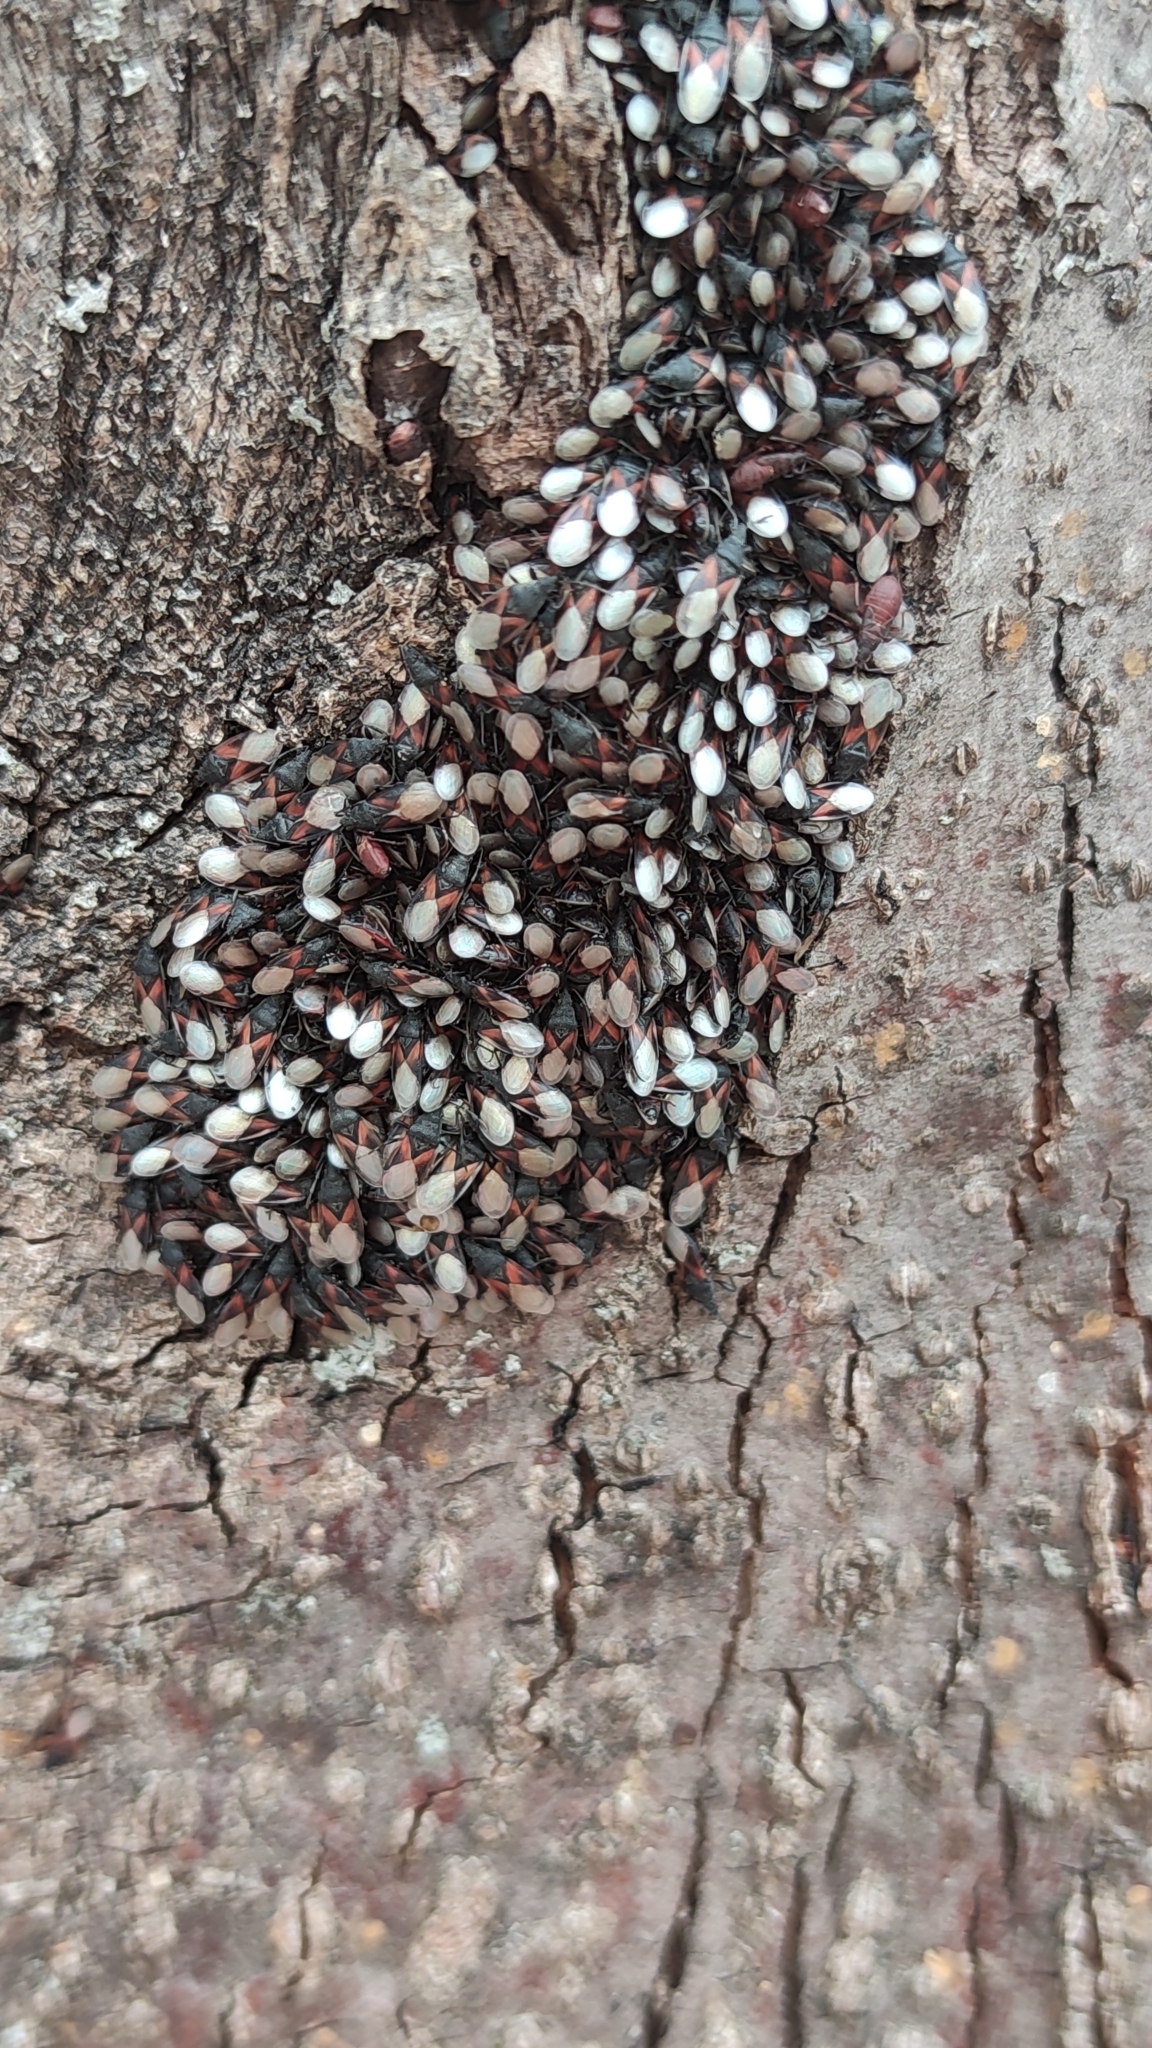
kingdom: Animalia
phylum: Arthropoda
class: Insecta
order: Hemiptera
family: Oxycarenidae
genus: Oxycarenus
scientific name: Oxycarenus lavaterae
